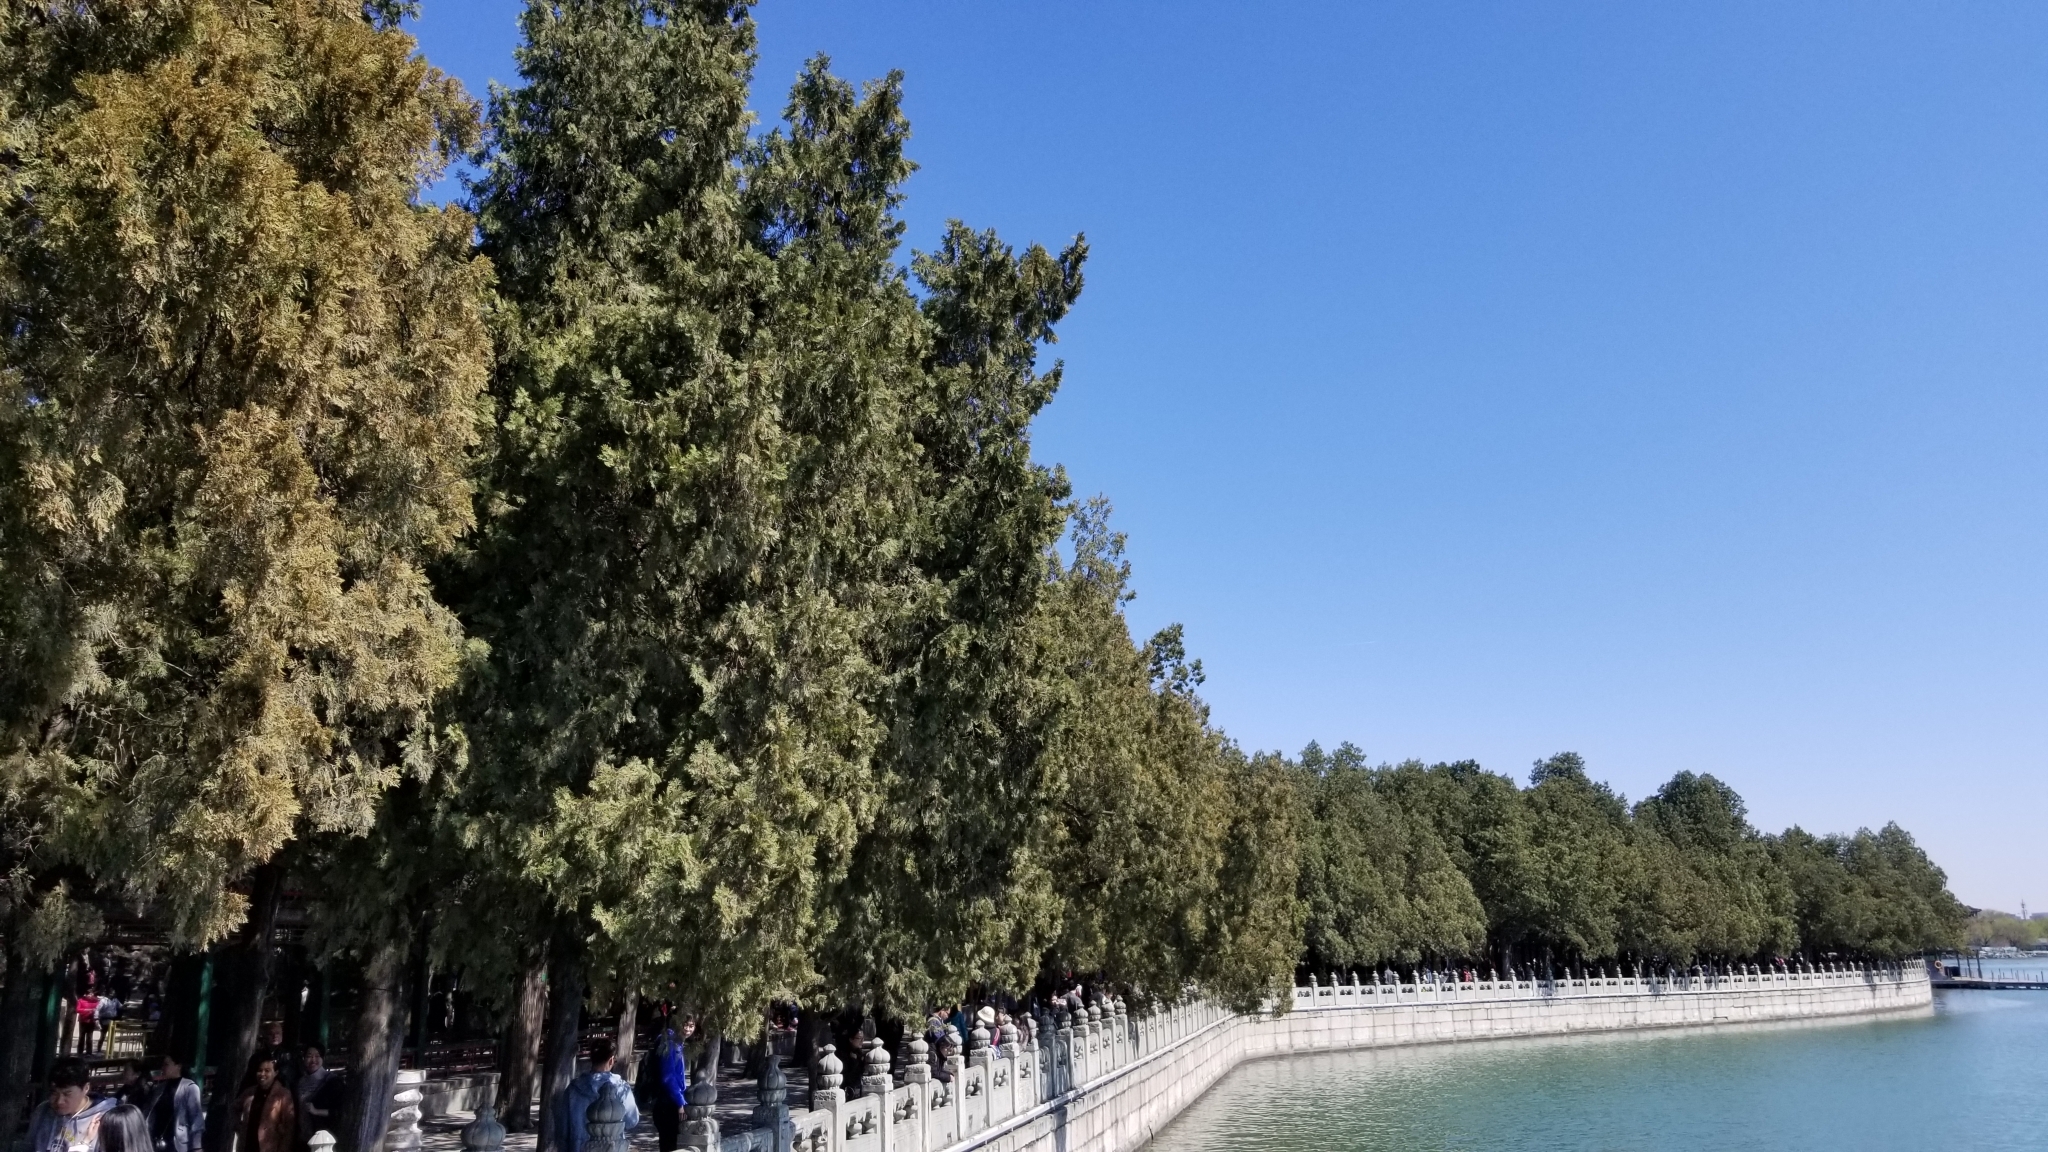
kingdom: Plantae
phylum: Tracheophyta
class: Pinopsida
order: Pinales
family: Cupressaceae
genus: Platycladus
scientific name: Platycladus orientalis
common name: Chinese thuja
